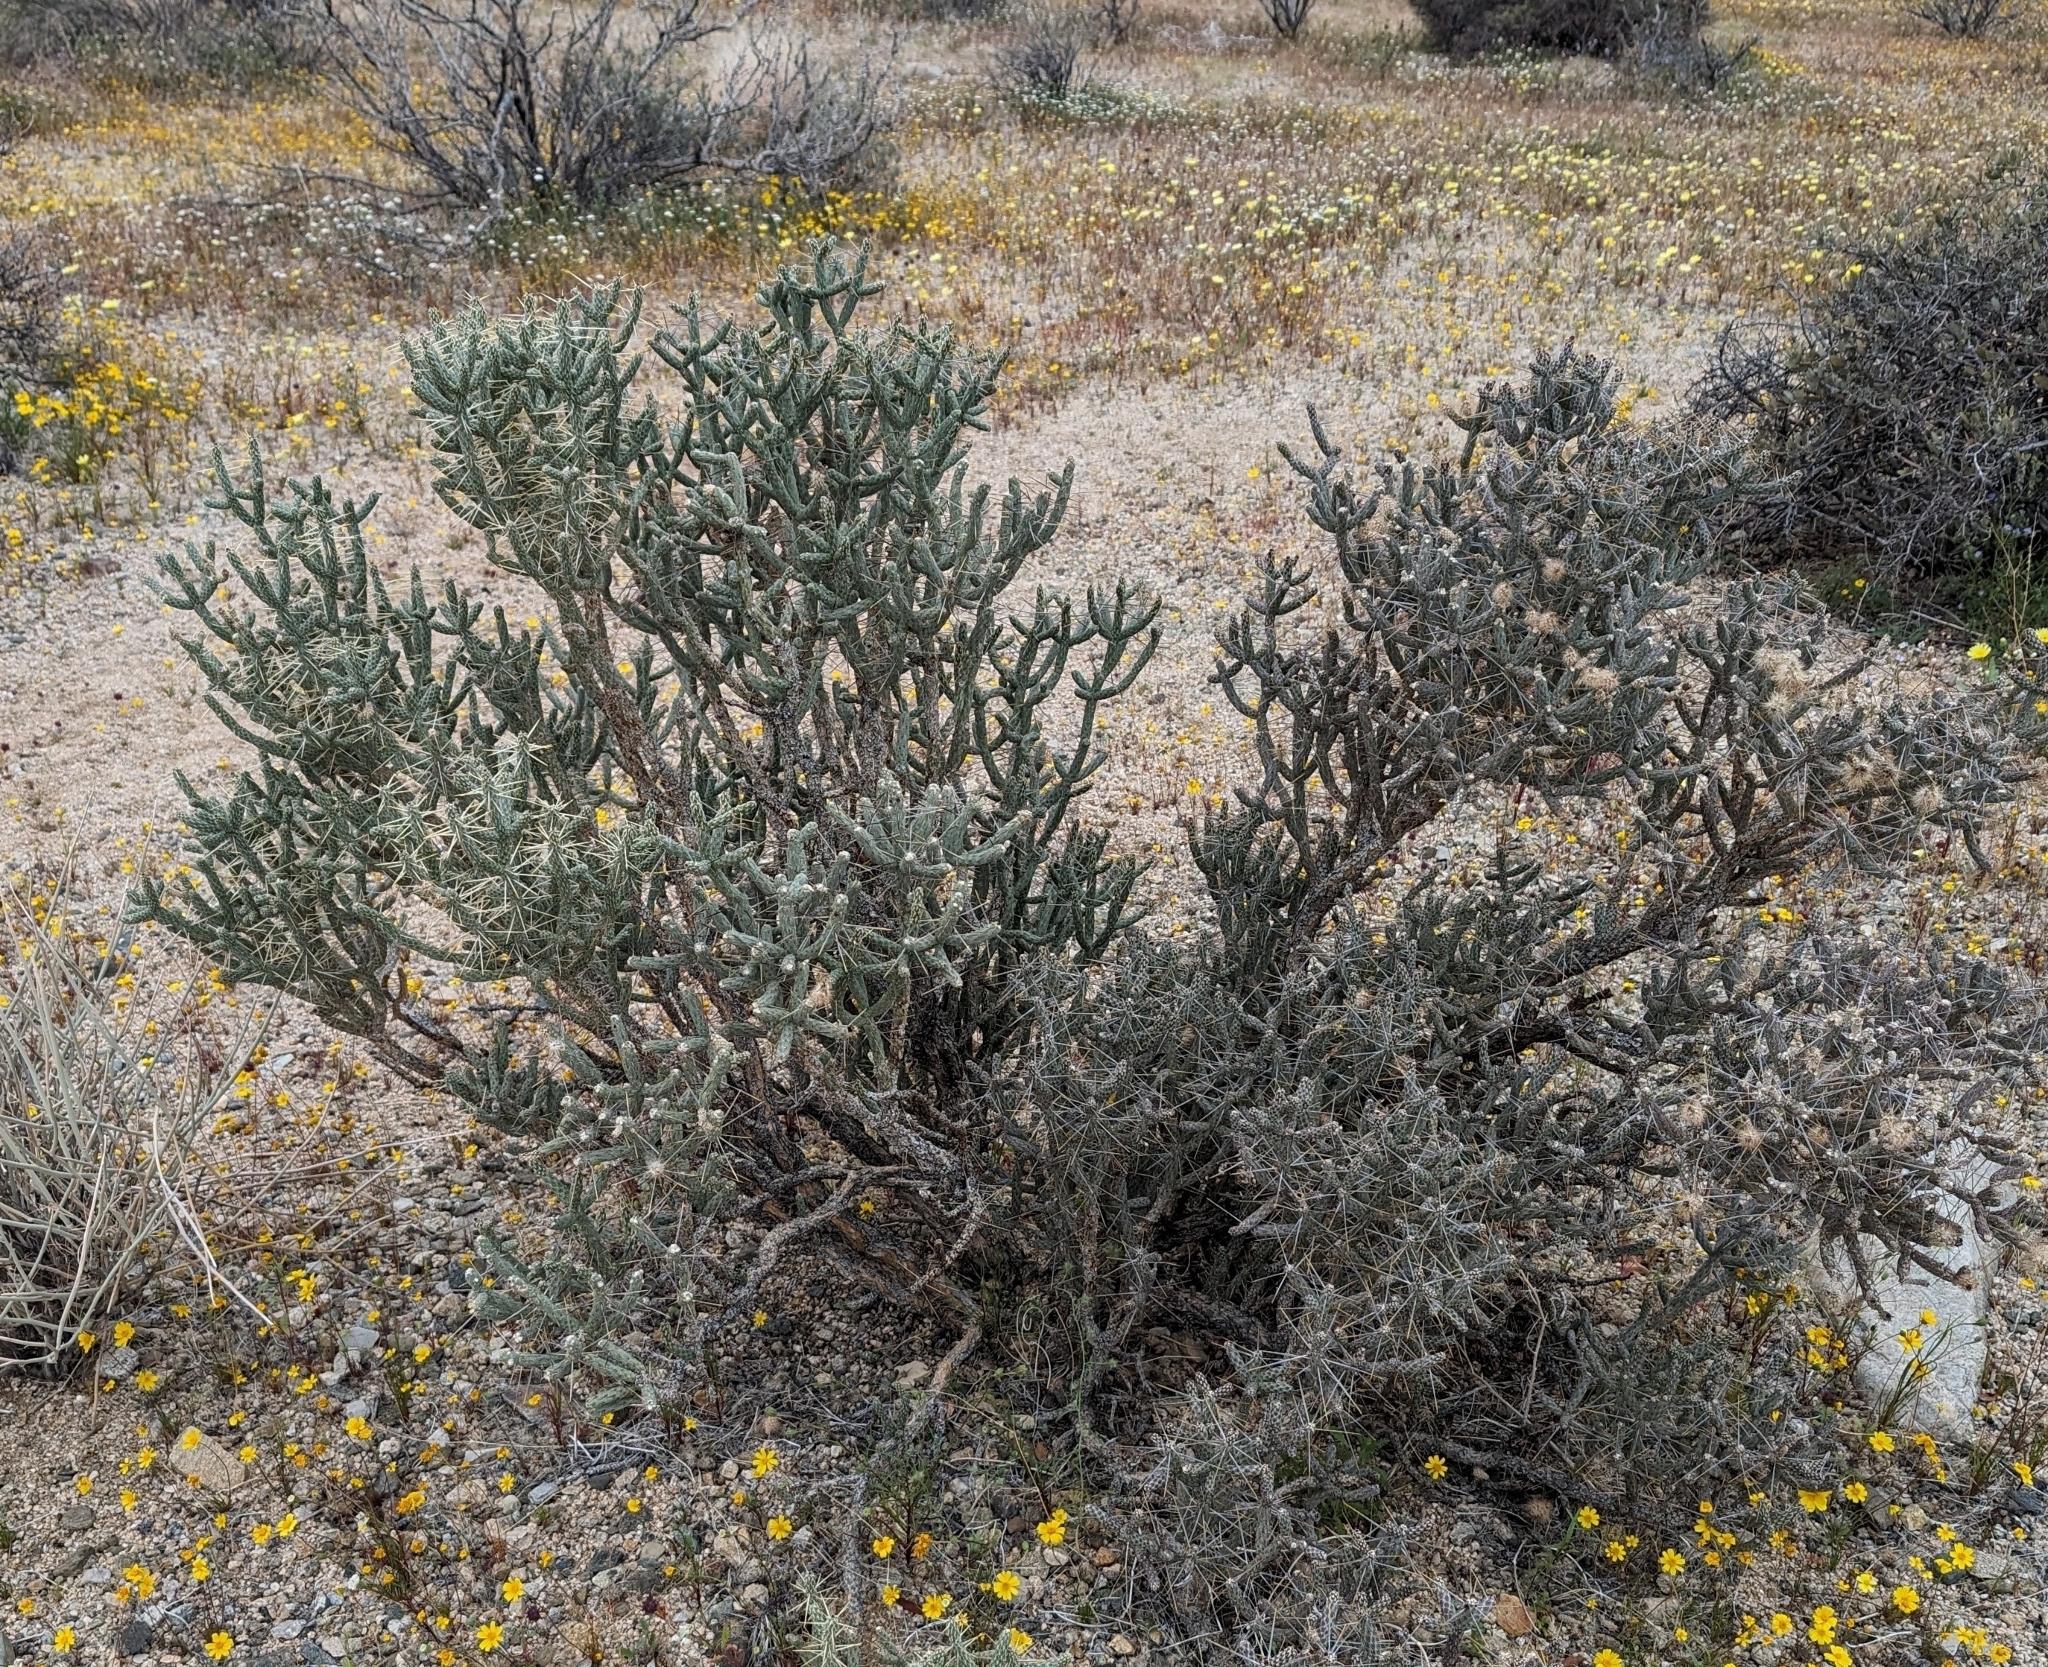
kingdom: Plantae
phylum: Tracheophyta
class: Magnoliopsida
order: Caryophyllales
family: Cactaceae
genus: Cylindropuntia
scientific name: Cylindropuntia ramosissima
